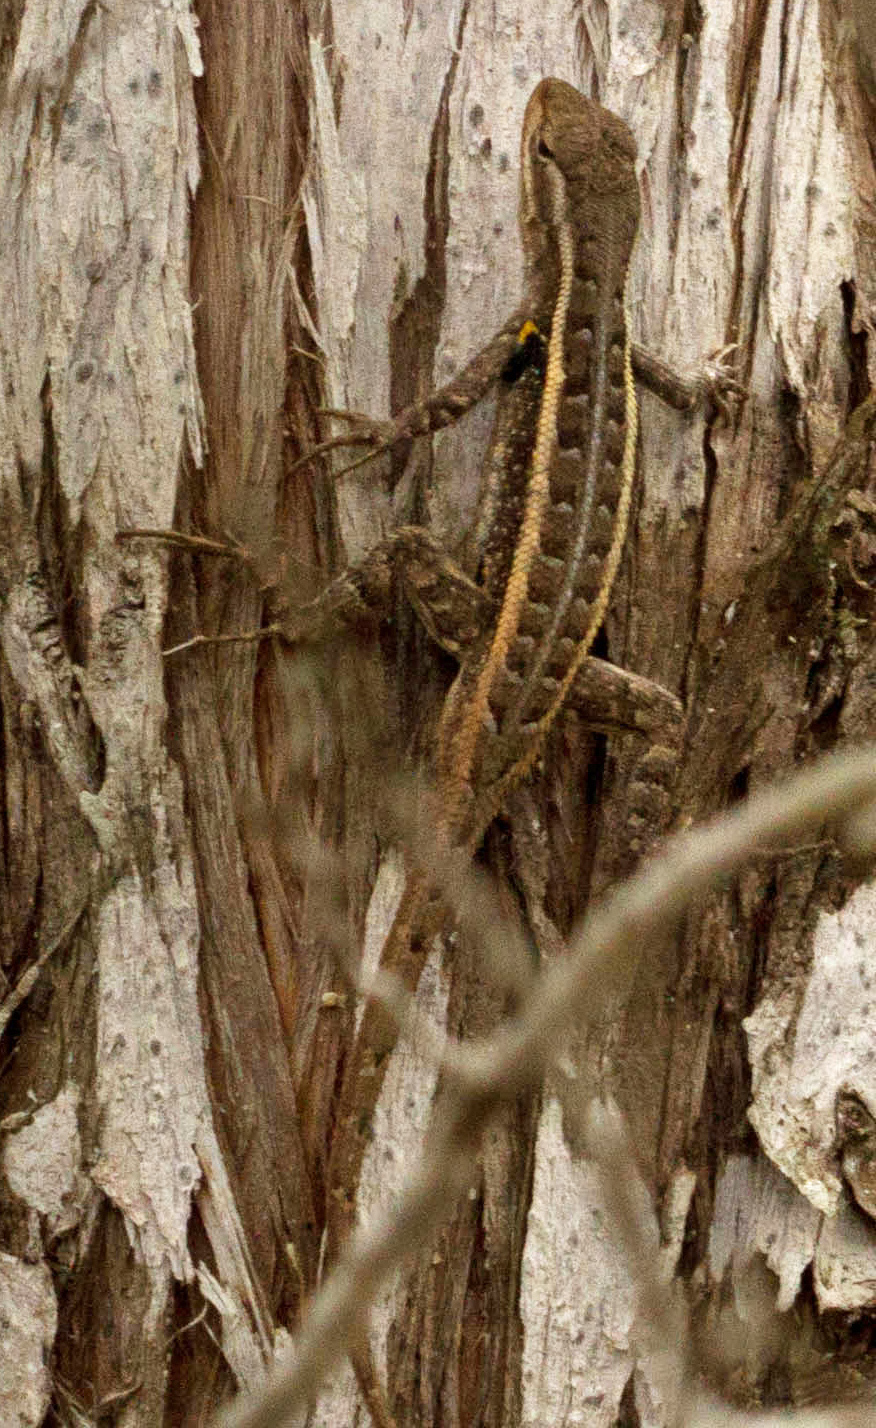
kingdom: Animalia
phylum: Chordata
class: Squamata
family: Phrynosomatidae
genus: Sceloporus
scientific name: Sceloporus variabilis
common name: Rosebelly lizard
